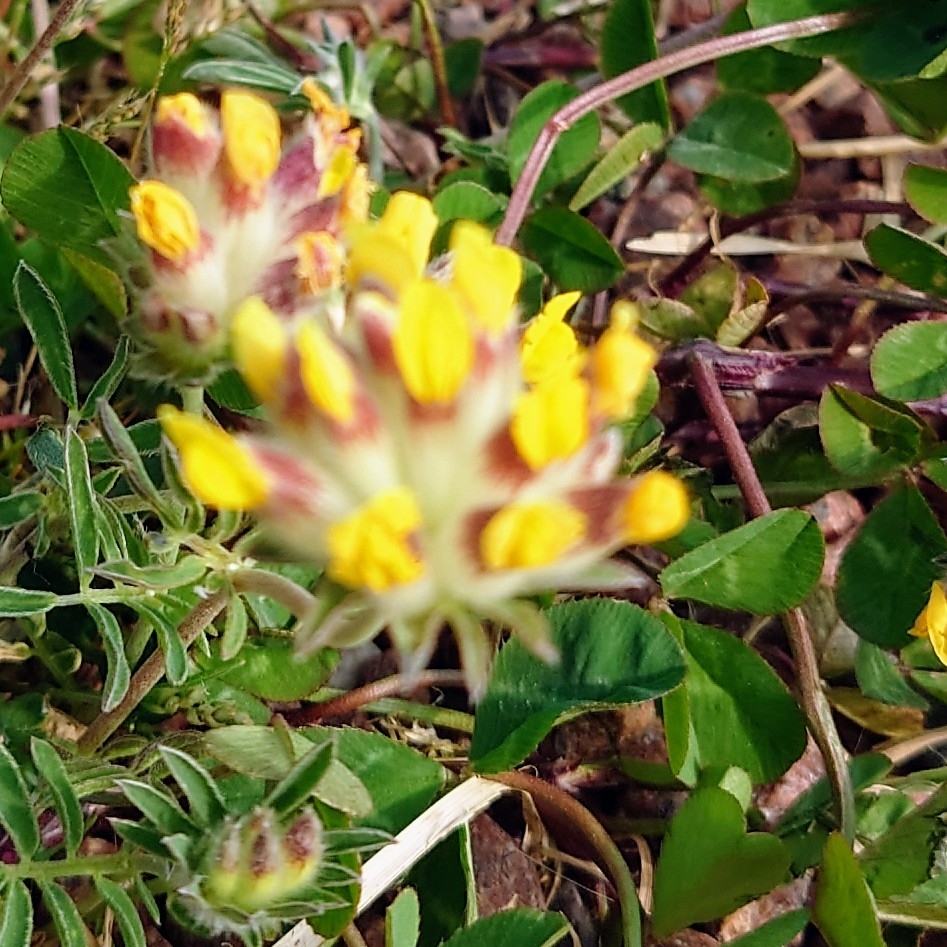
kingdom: Plantae
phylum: Tracheophyta
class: Magnoliopsida
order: Fabales
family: Fabaceae
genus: Anthyllis
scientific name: Anthyllis vulneraria
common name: Kidney vetch
